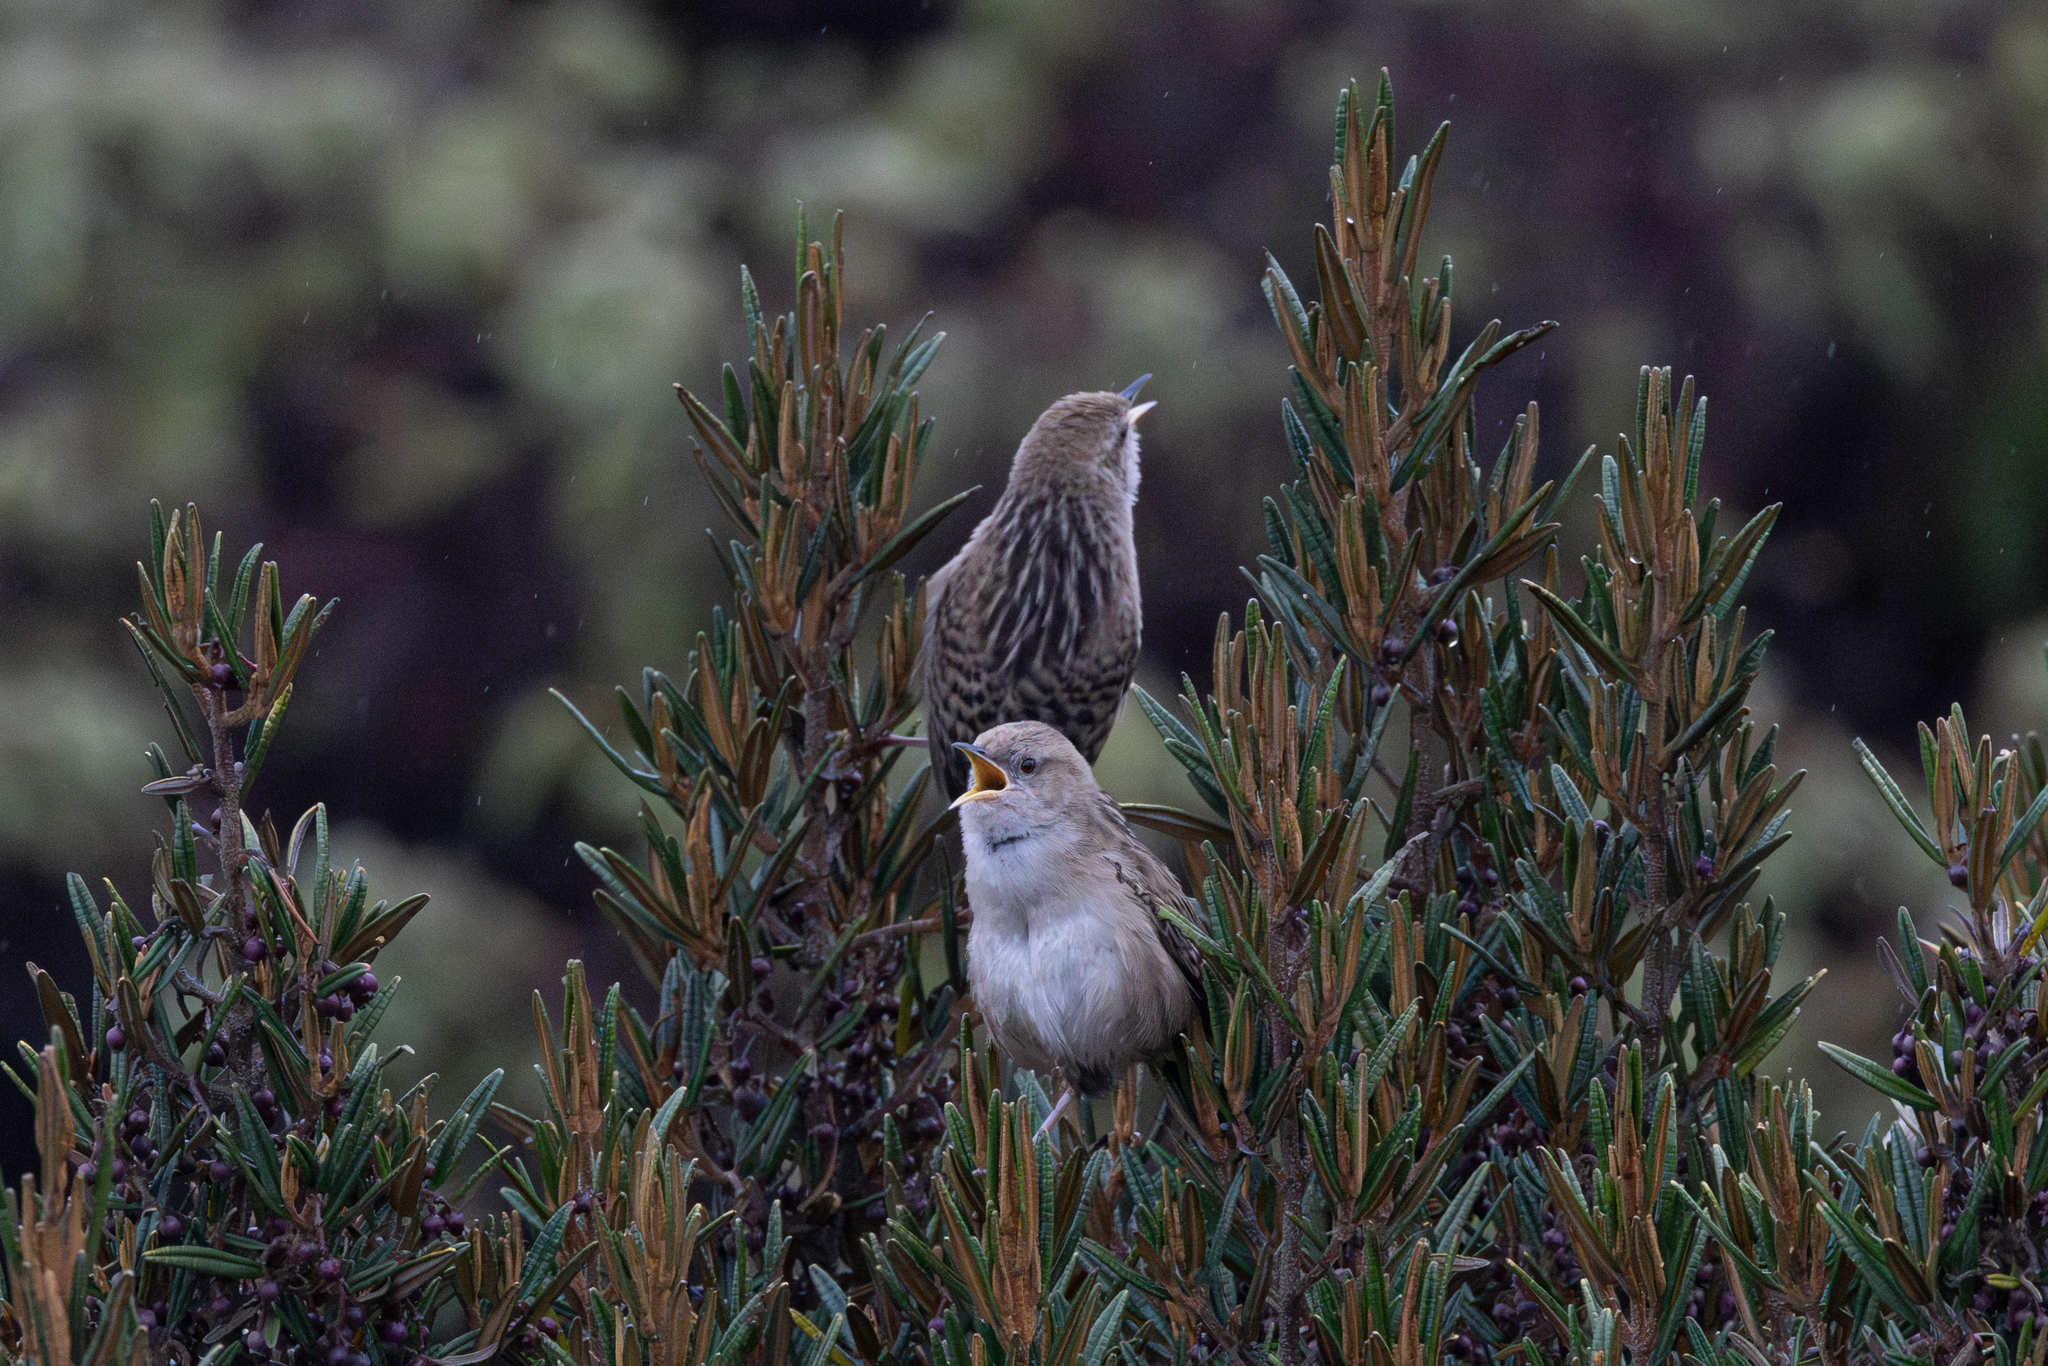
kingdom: Animalia
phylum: Chordata
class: Aves
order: Passeriformes
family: Troglodytidae
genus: Cistothorus
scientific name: Cistothorus apolinari
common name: Apolinar's wren
